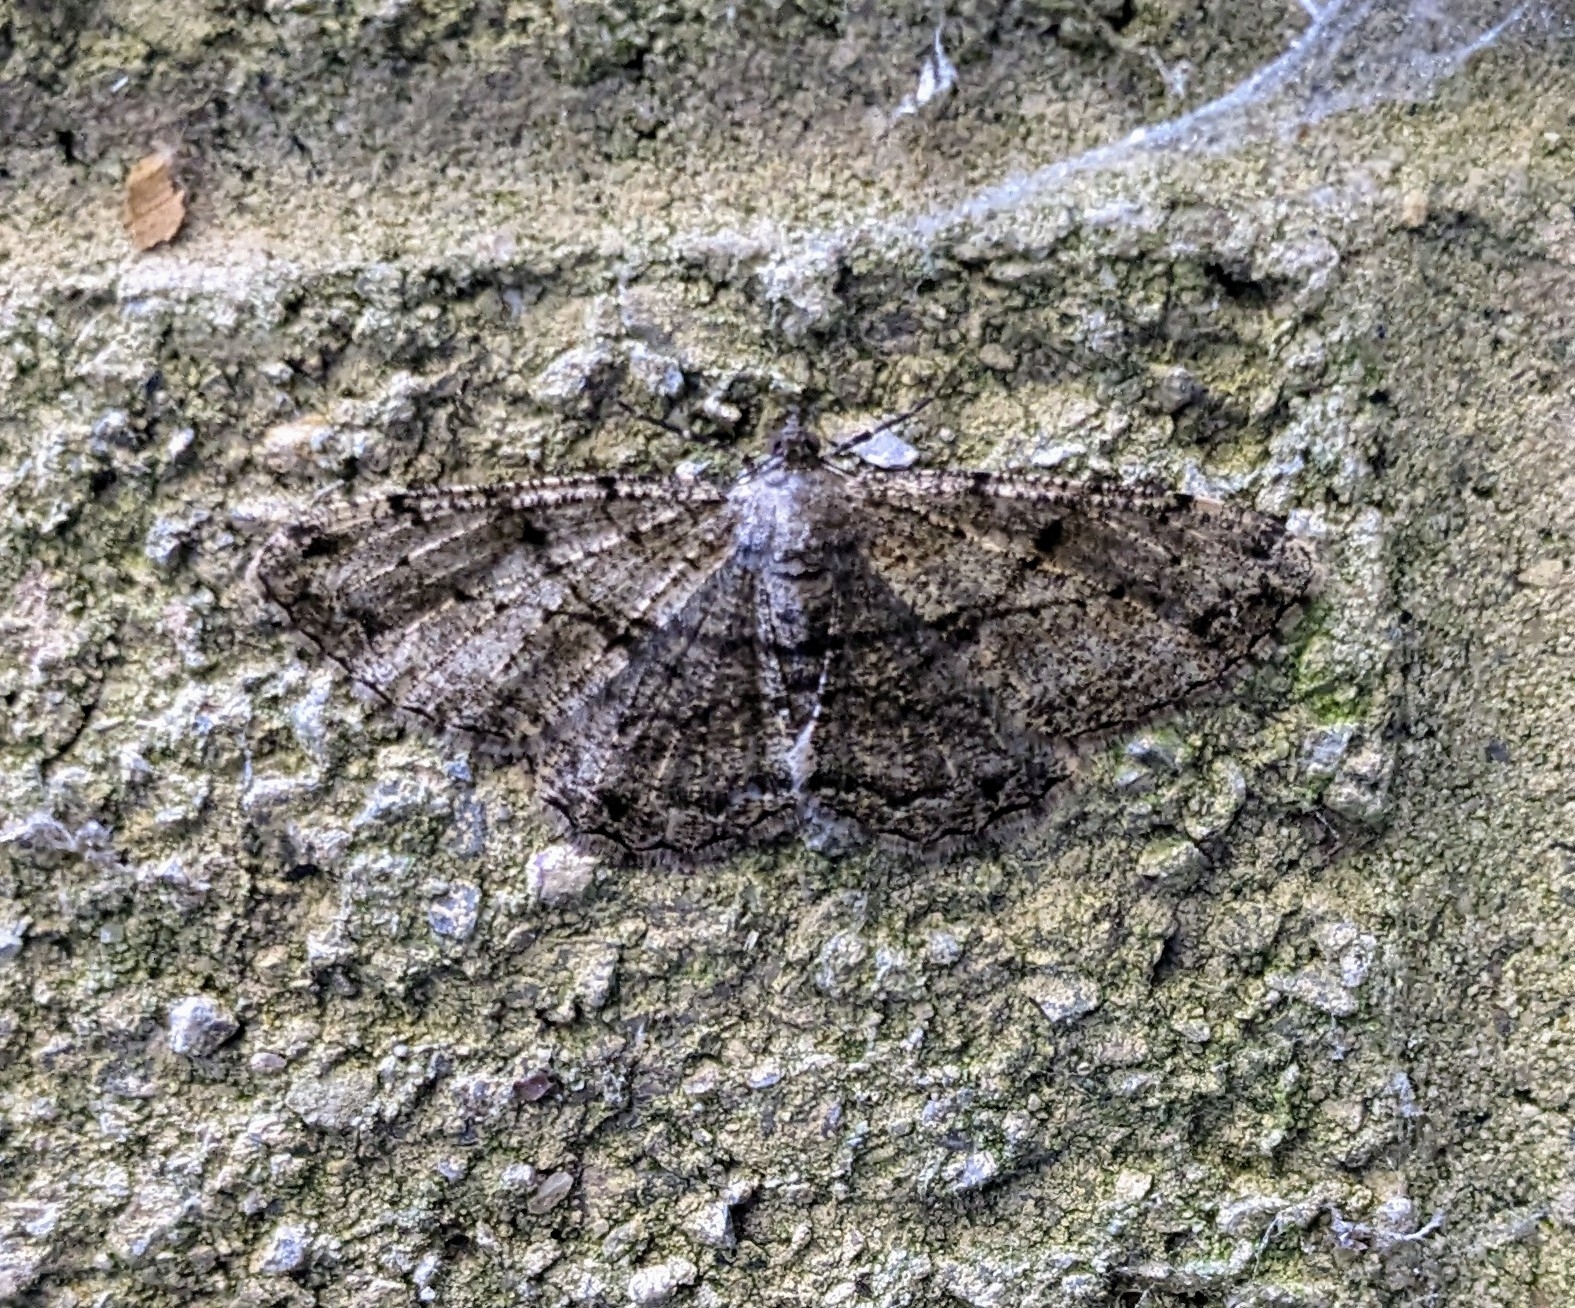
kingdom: Animalia
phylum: Arthropoda
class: Insecta
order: Lepidoptera
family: Geometridae
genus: Peribatodes
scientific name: Peribatodes rhomboidaria
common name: Willow beauty
